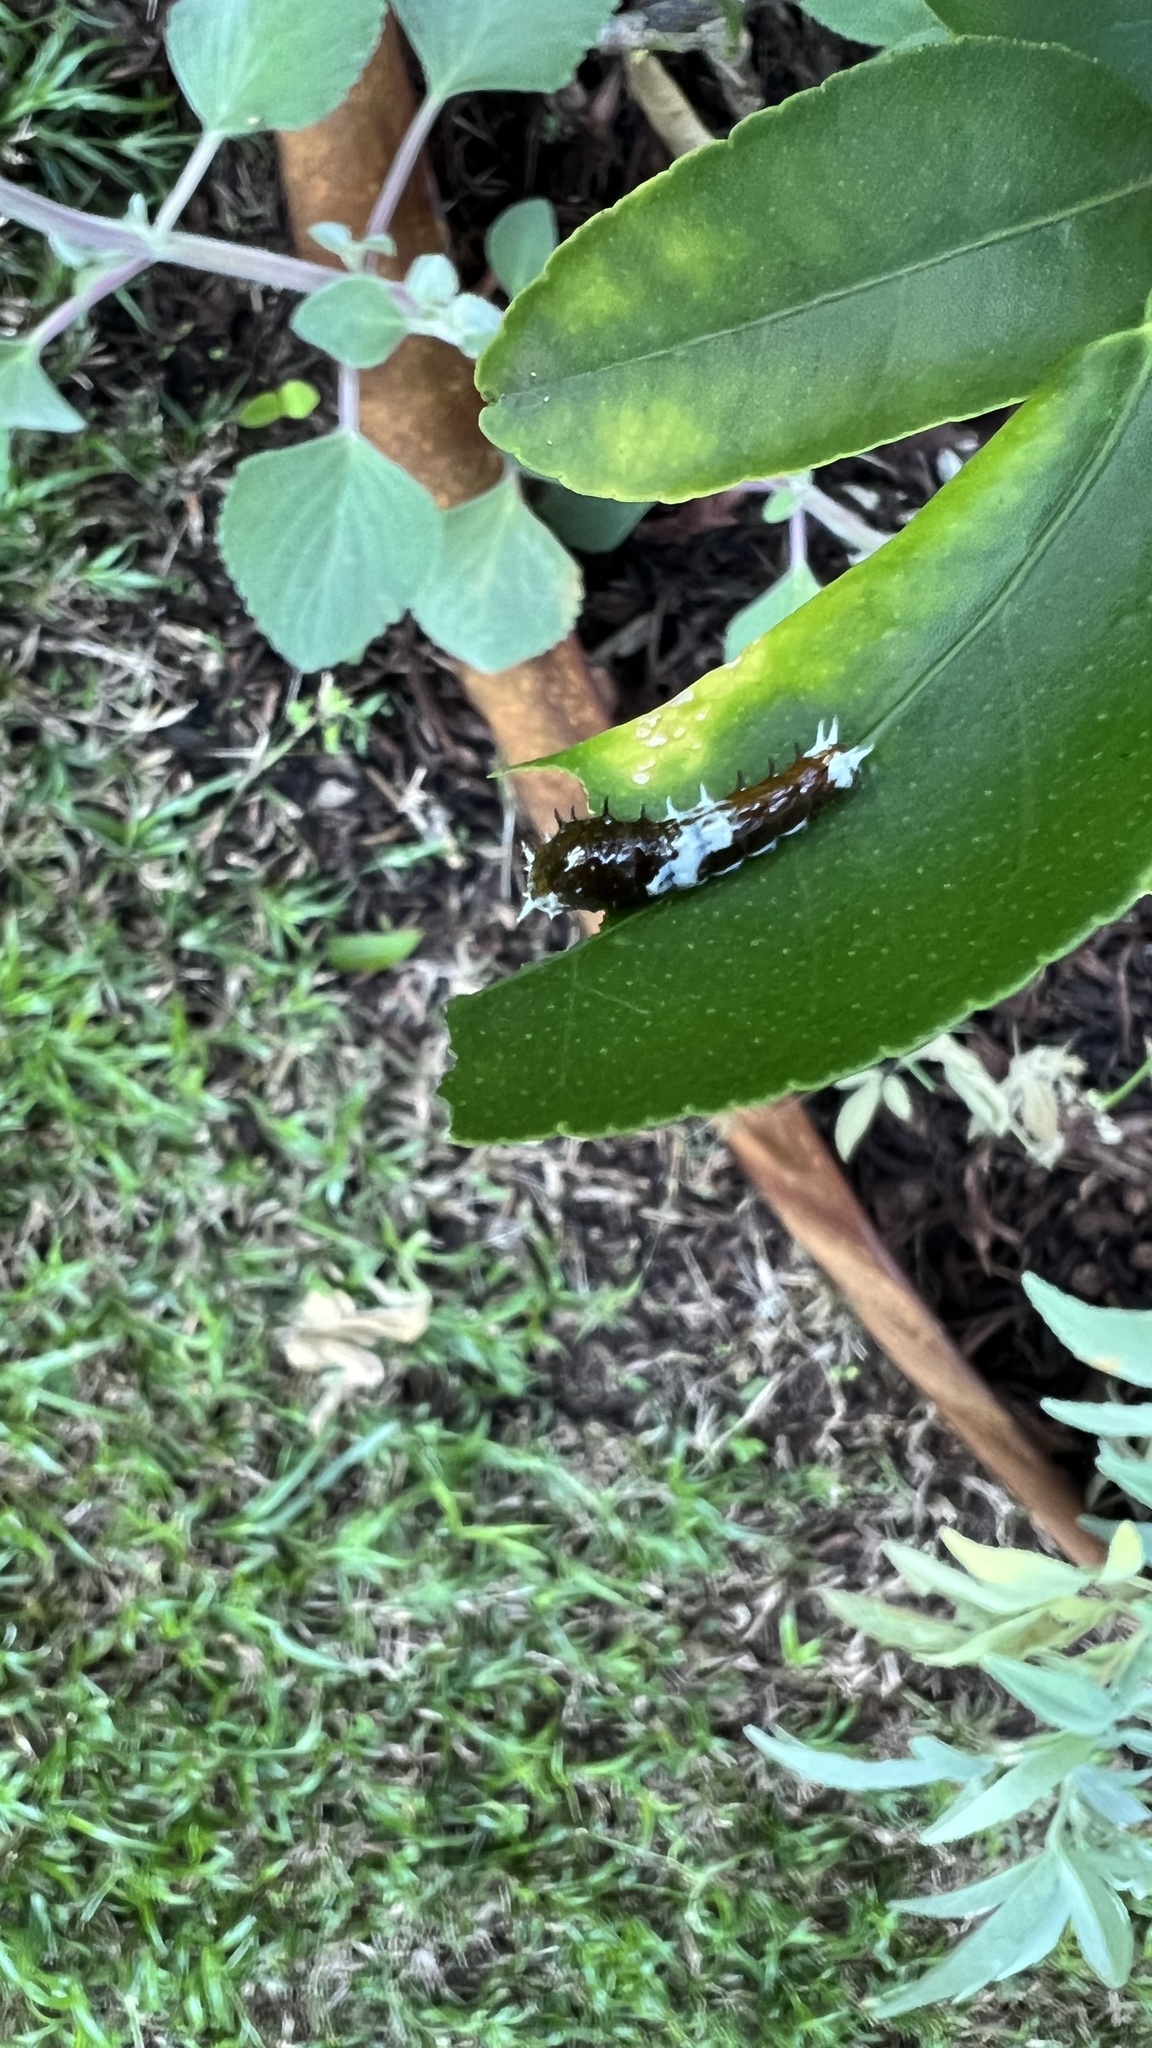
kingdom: Animalia
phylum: Arthropoda
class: Insecta
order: Lepidoptera
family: Papilionidae
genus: Papilio
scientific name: Papilio aegeus
